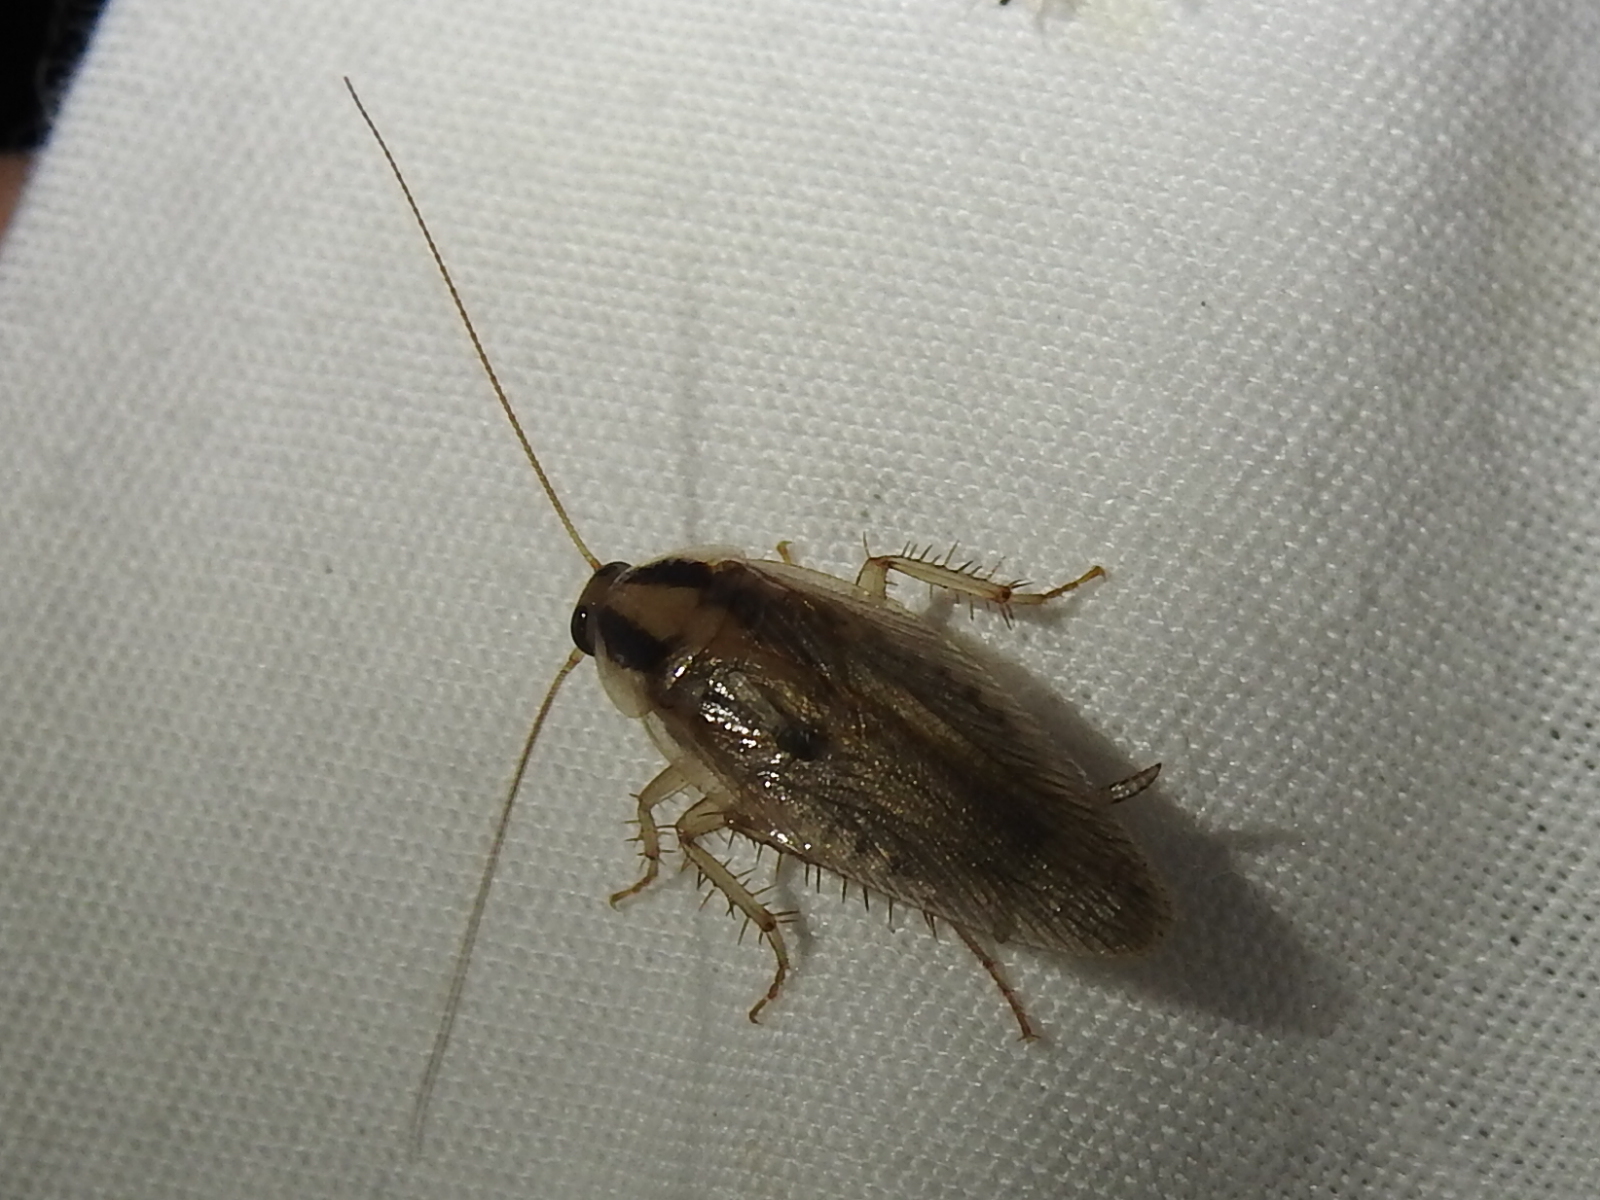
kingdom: Animalia
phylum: Arthropoda
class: Insecta
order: Blattodea
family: Ectobiidae
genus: Blattella
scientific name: Blattella vaga
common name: Field cockroach
